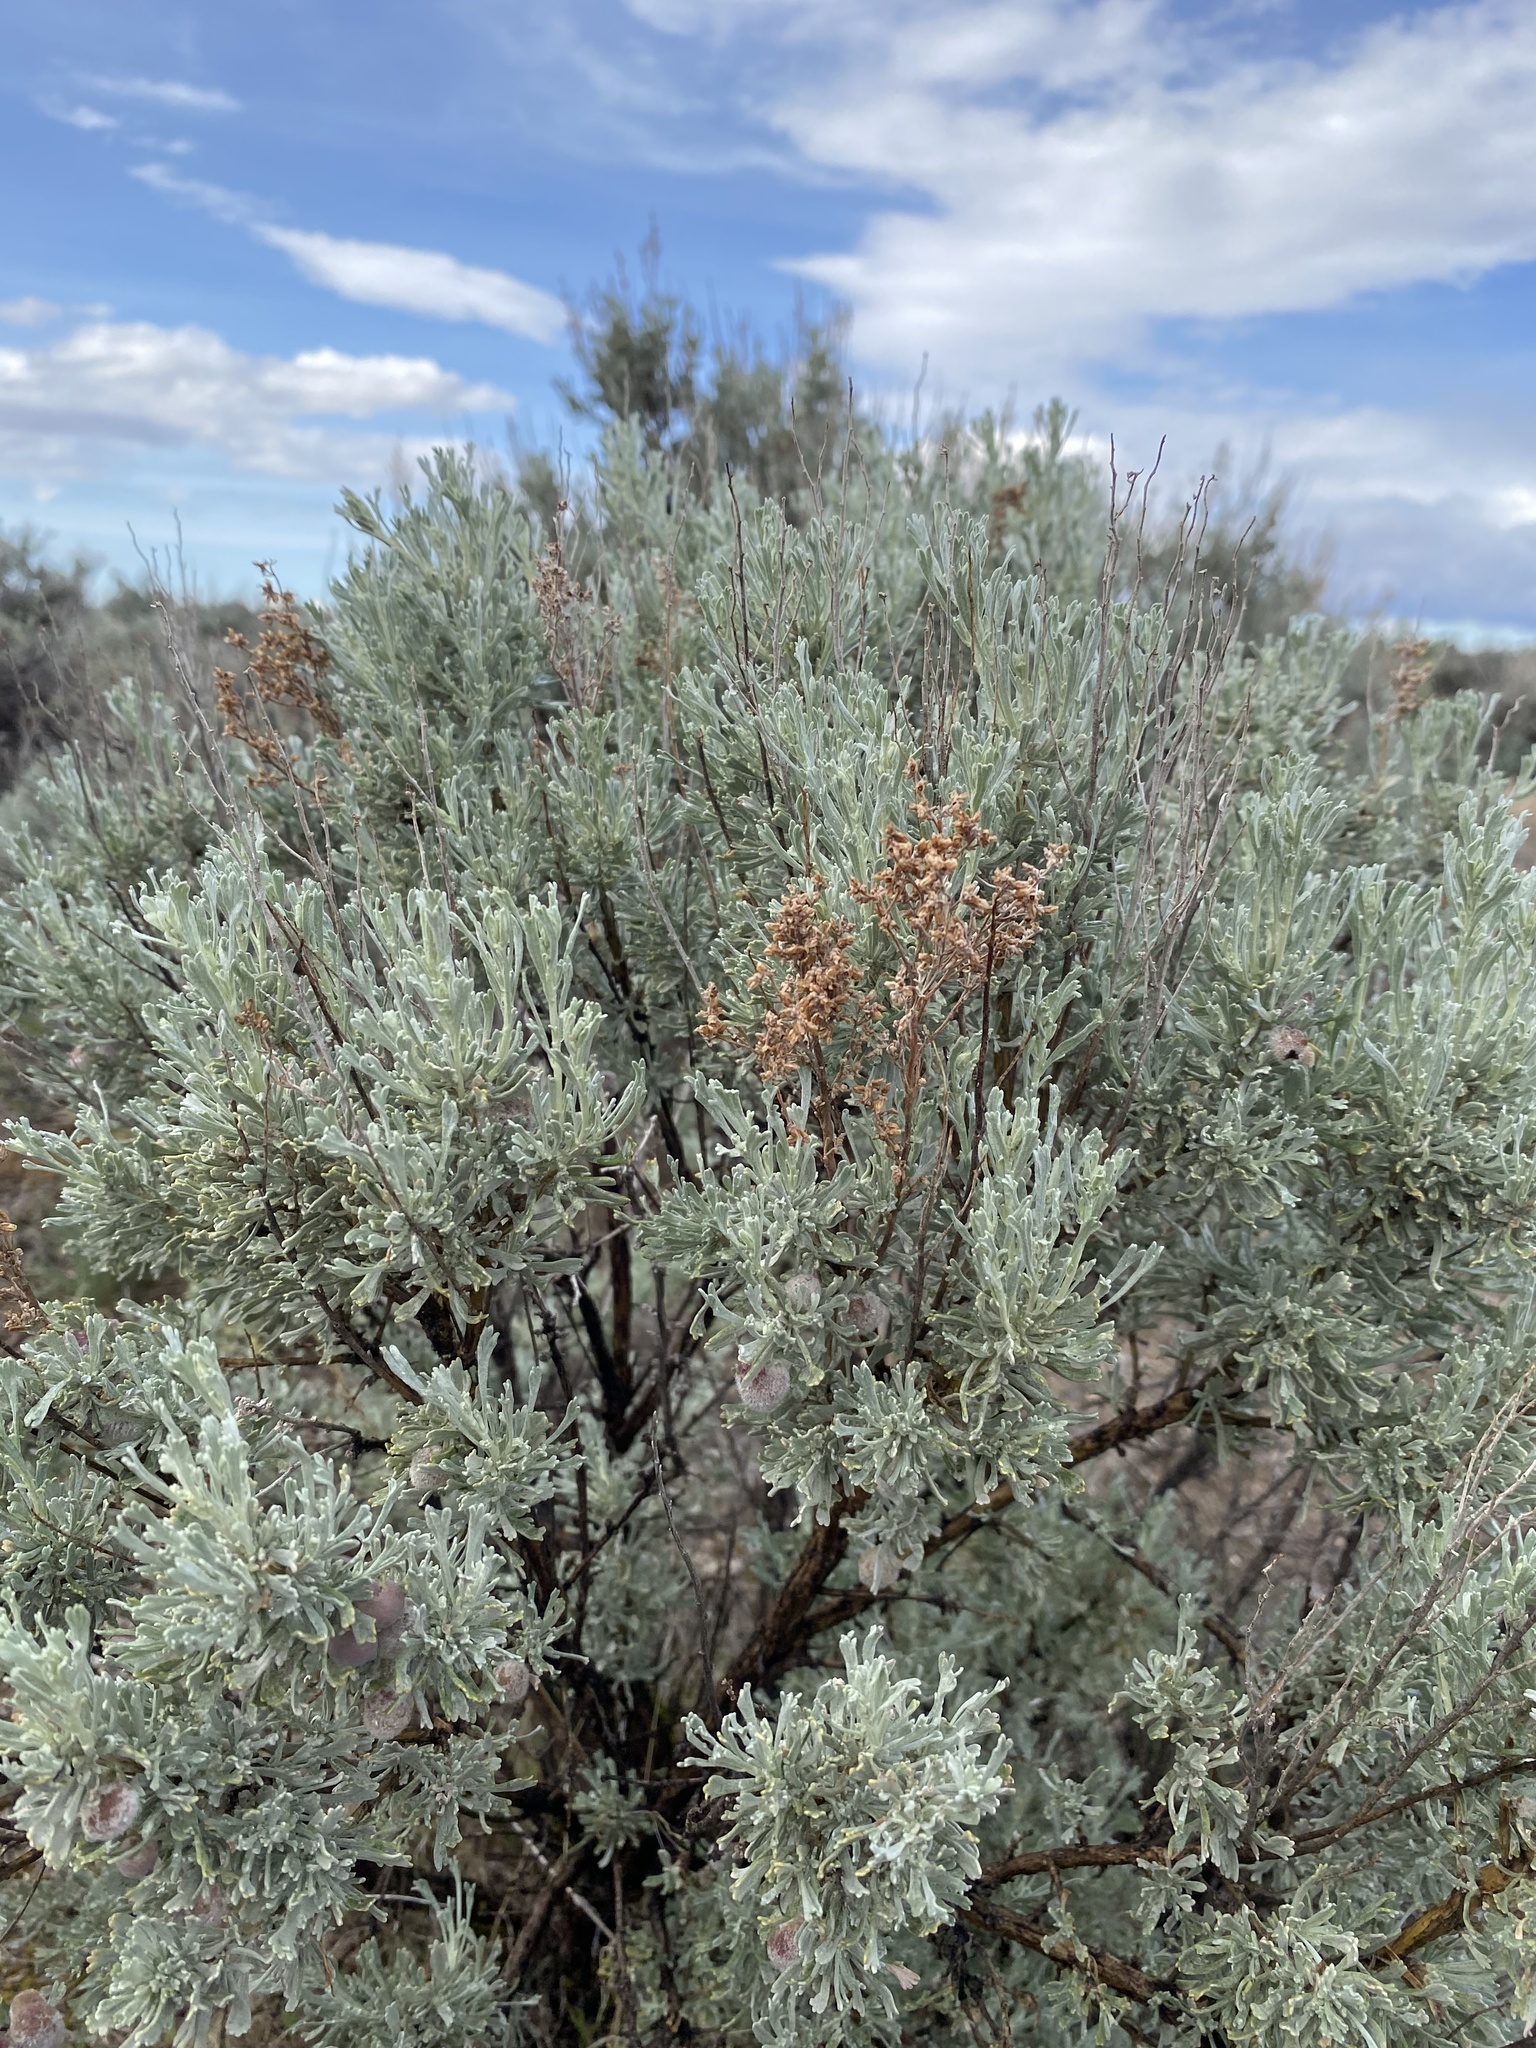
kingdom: Plantae
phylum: Tracheophyta
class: Magnoliopsida
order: Asterales
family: Asteraceae
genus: Artemisia
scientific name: Artemisia tridentata
